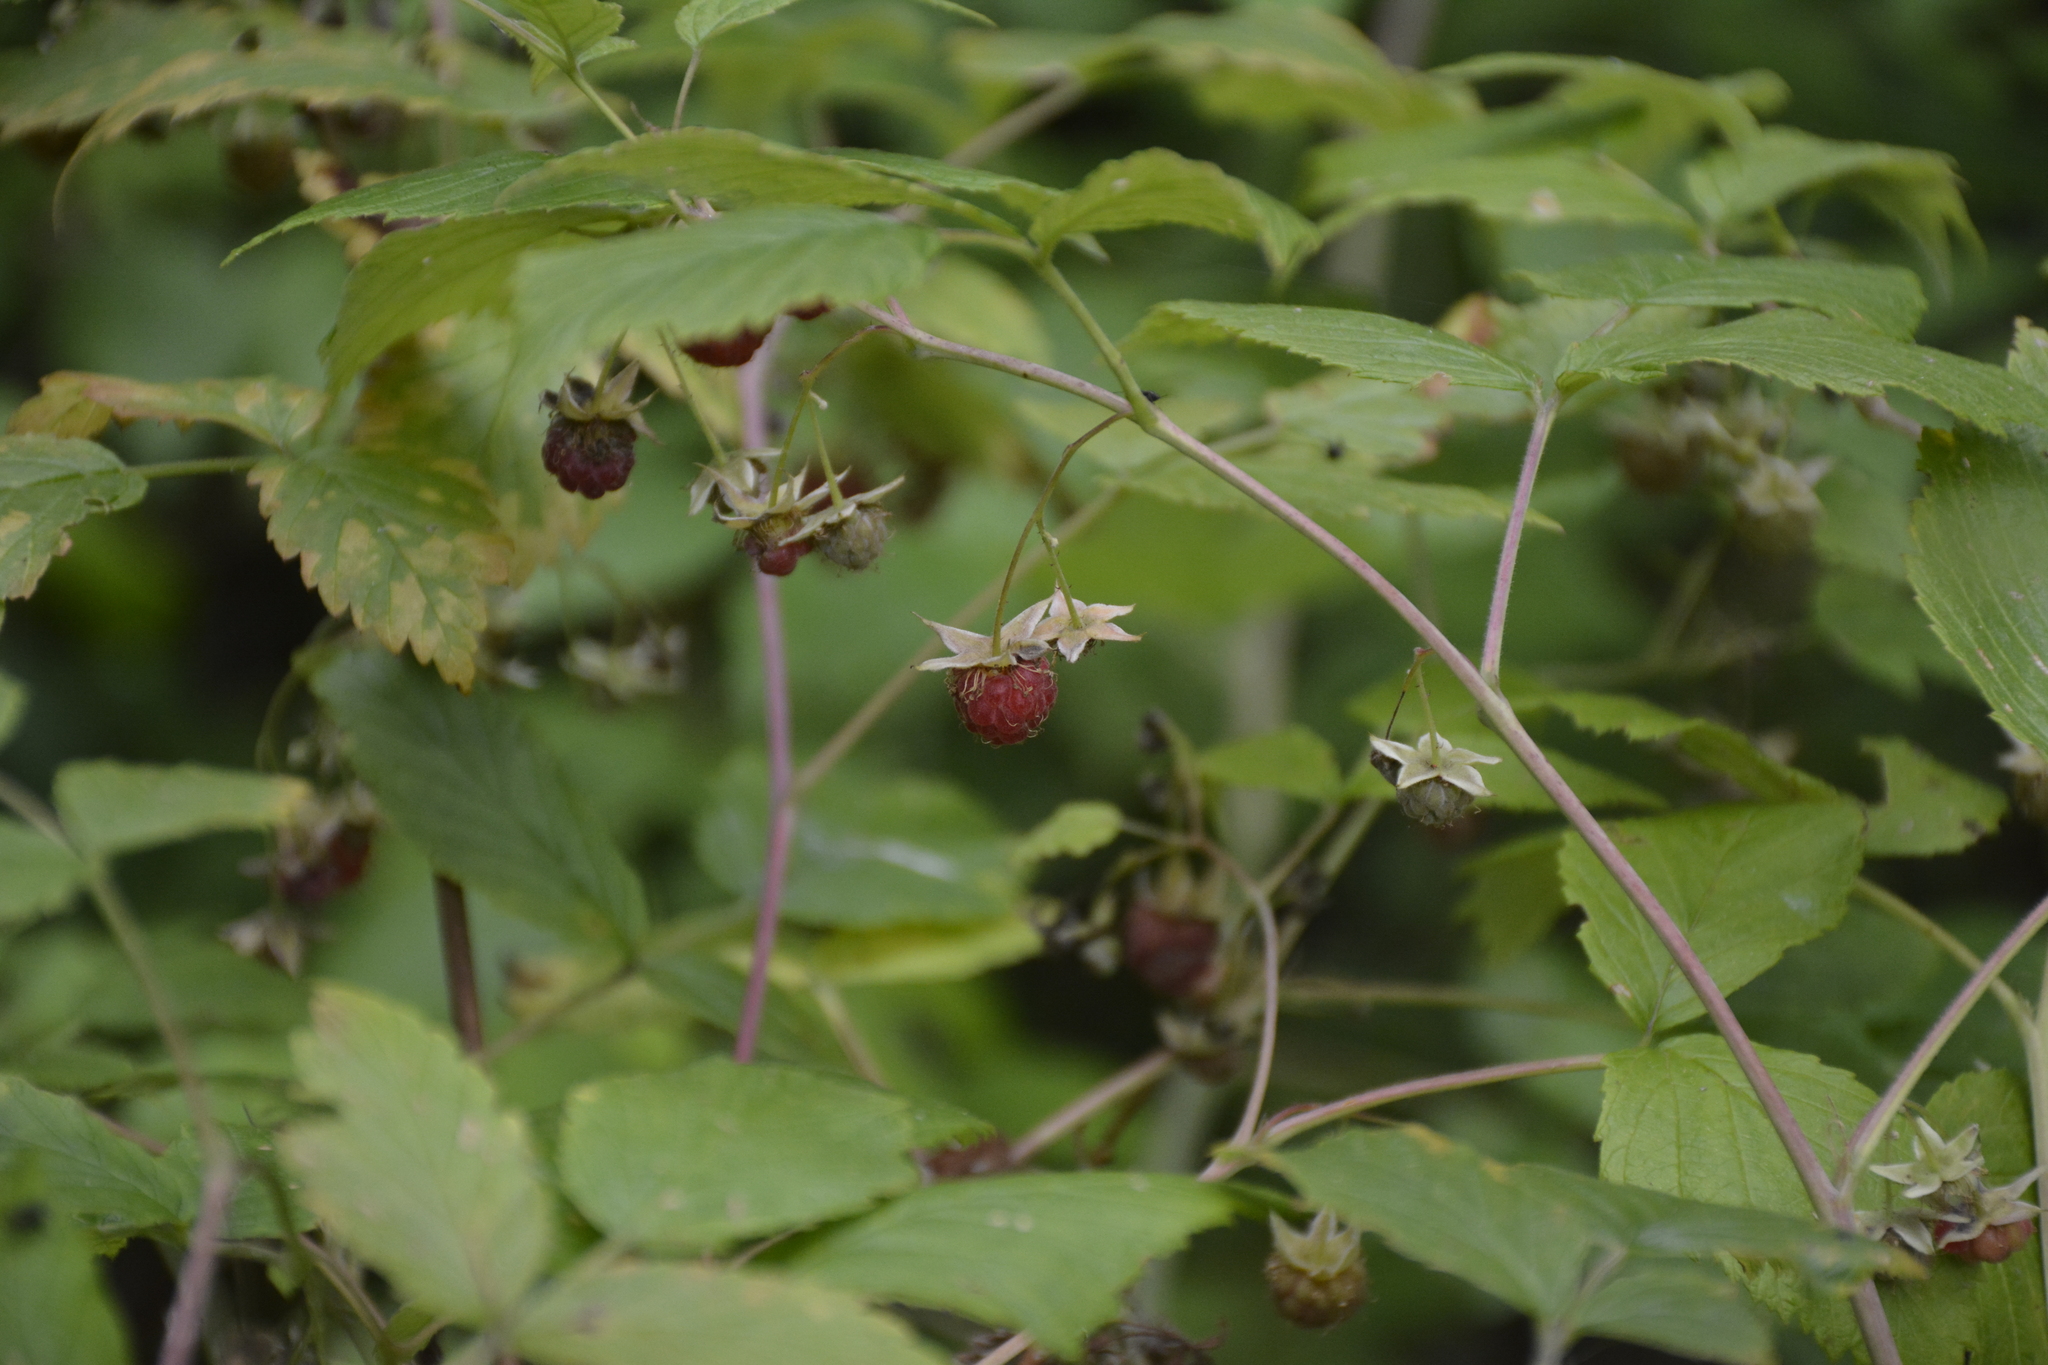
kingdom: Plantae
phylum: Tracheophyta
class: Magnoliopsida
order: Rosales
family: Rosaceae
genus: Rubus
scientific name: Rubus idaeus
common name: Raspberry
